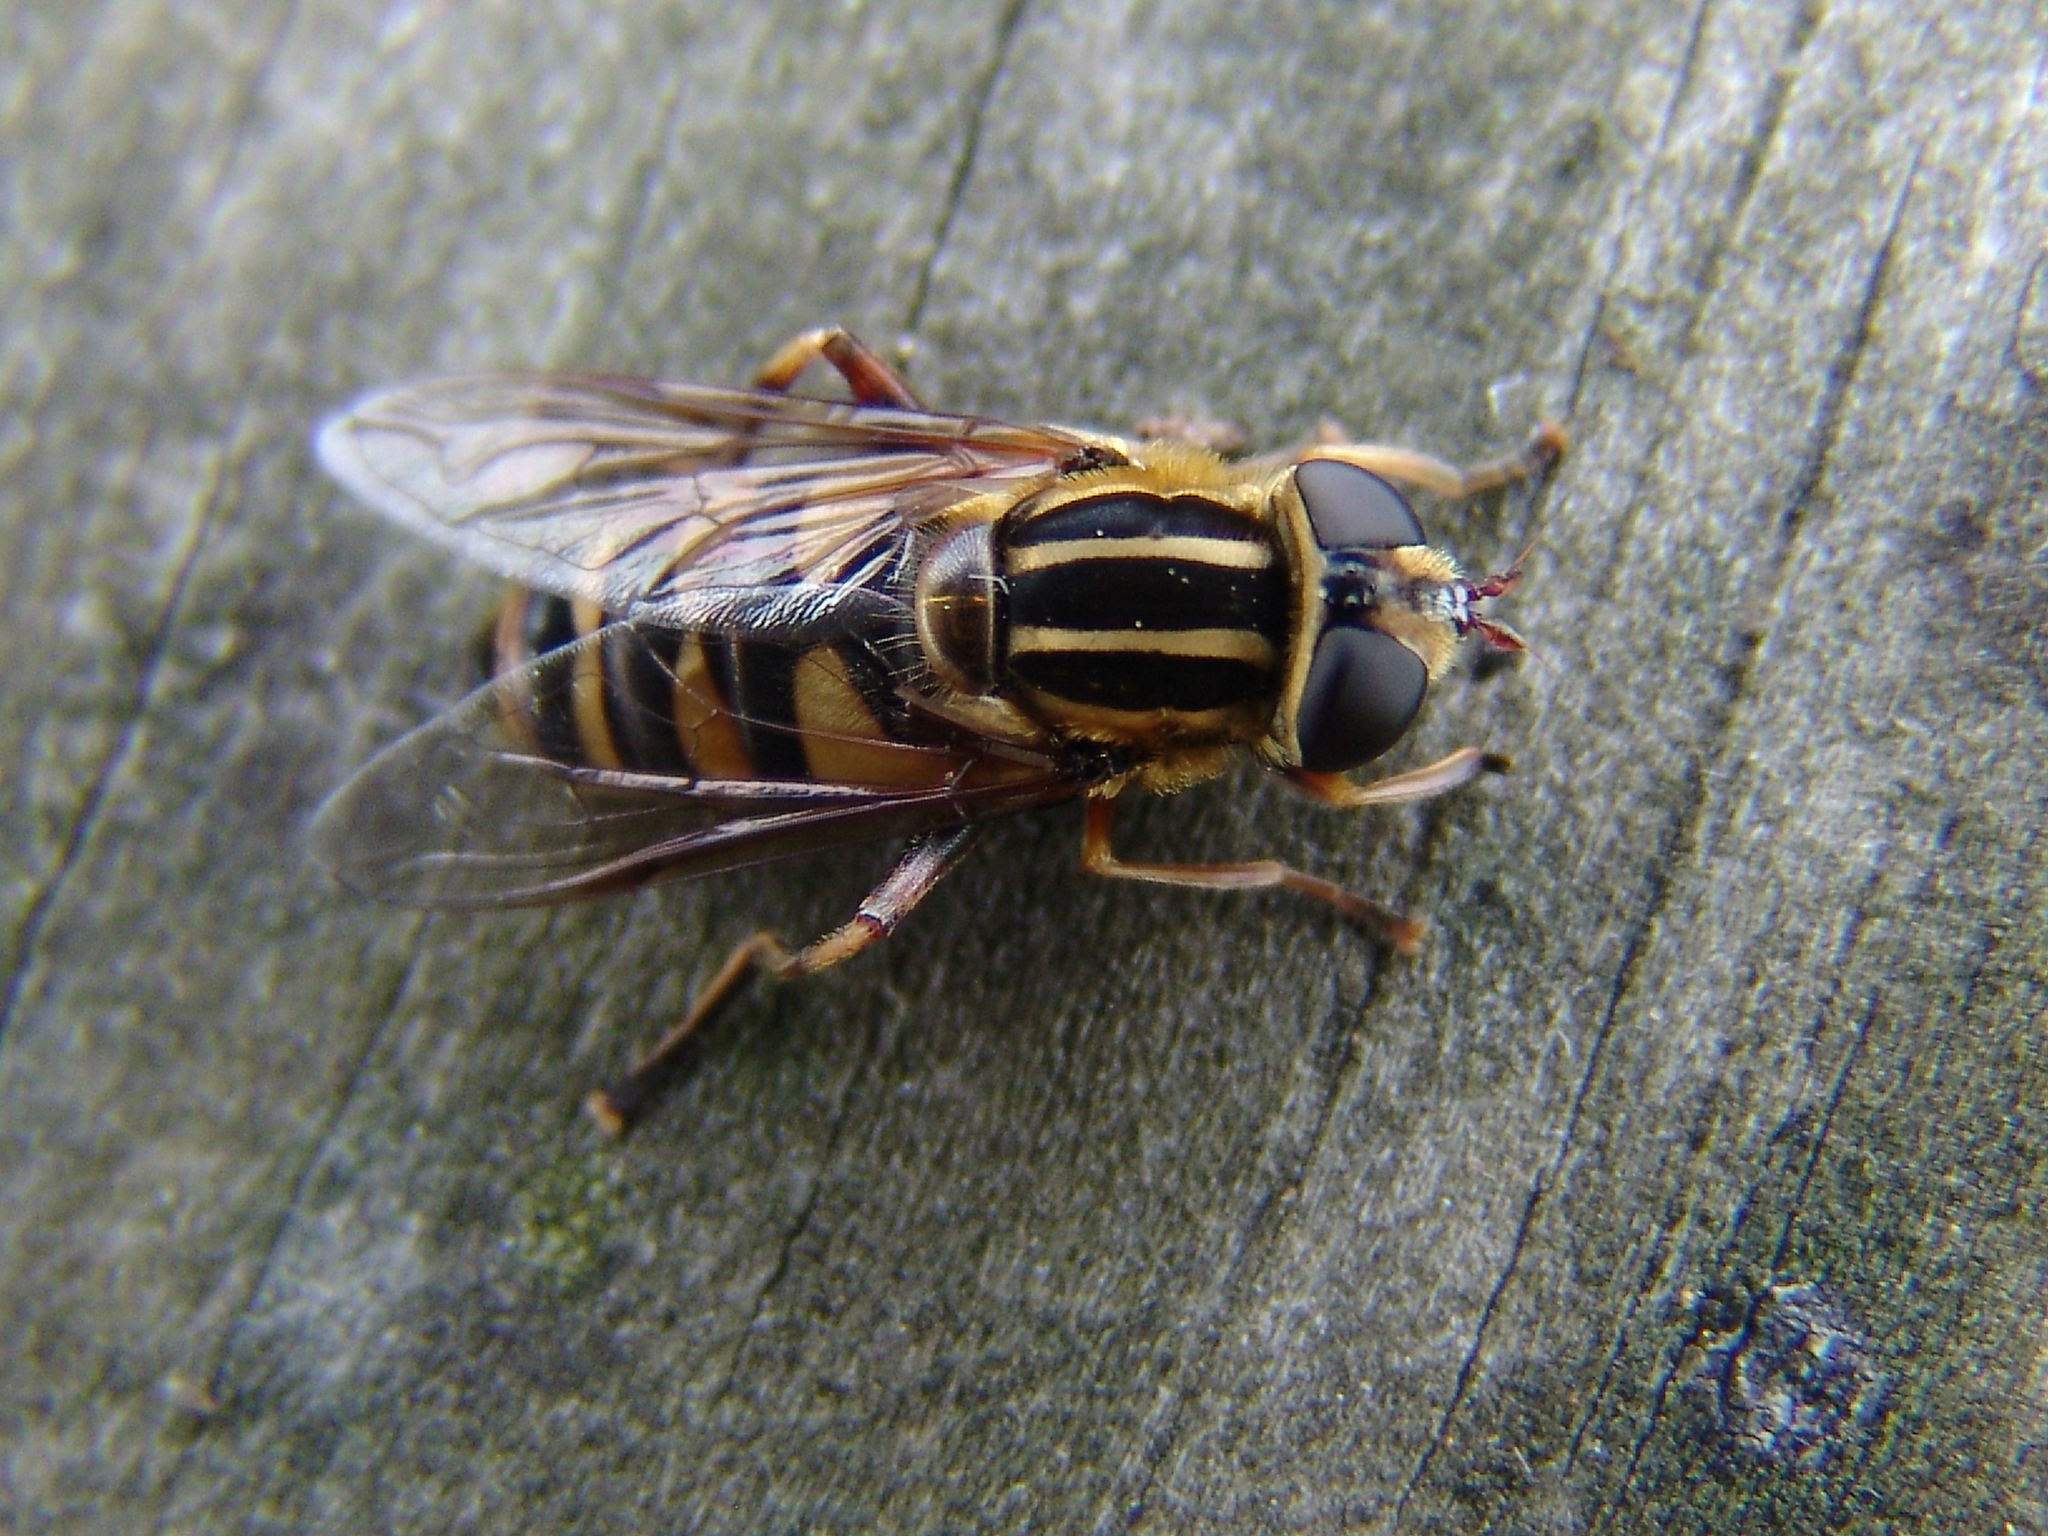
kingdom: Animalia
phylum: Arthropoda
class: Insecta
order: Diptera
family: Syrphidae
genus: Helophilus
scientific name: Helophilus fasciatus
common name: Narrow-headed marsh fly
